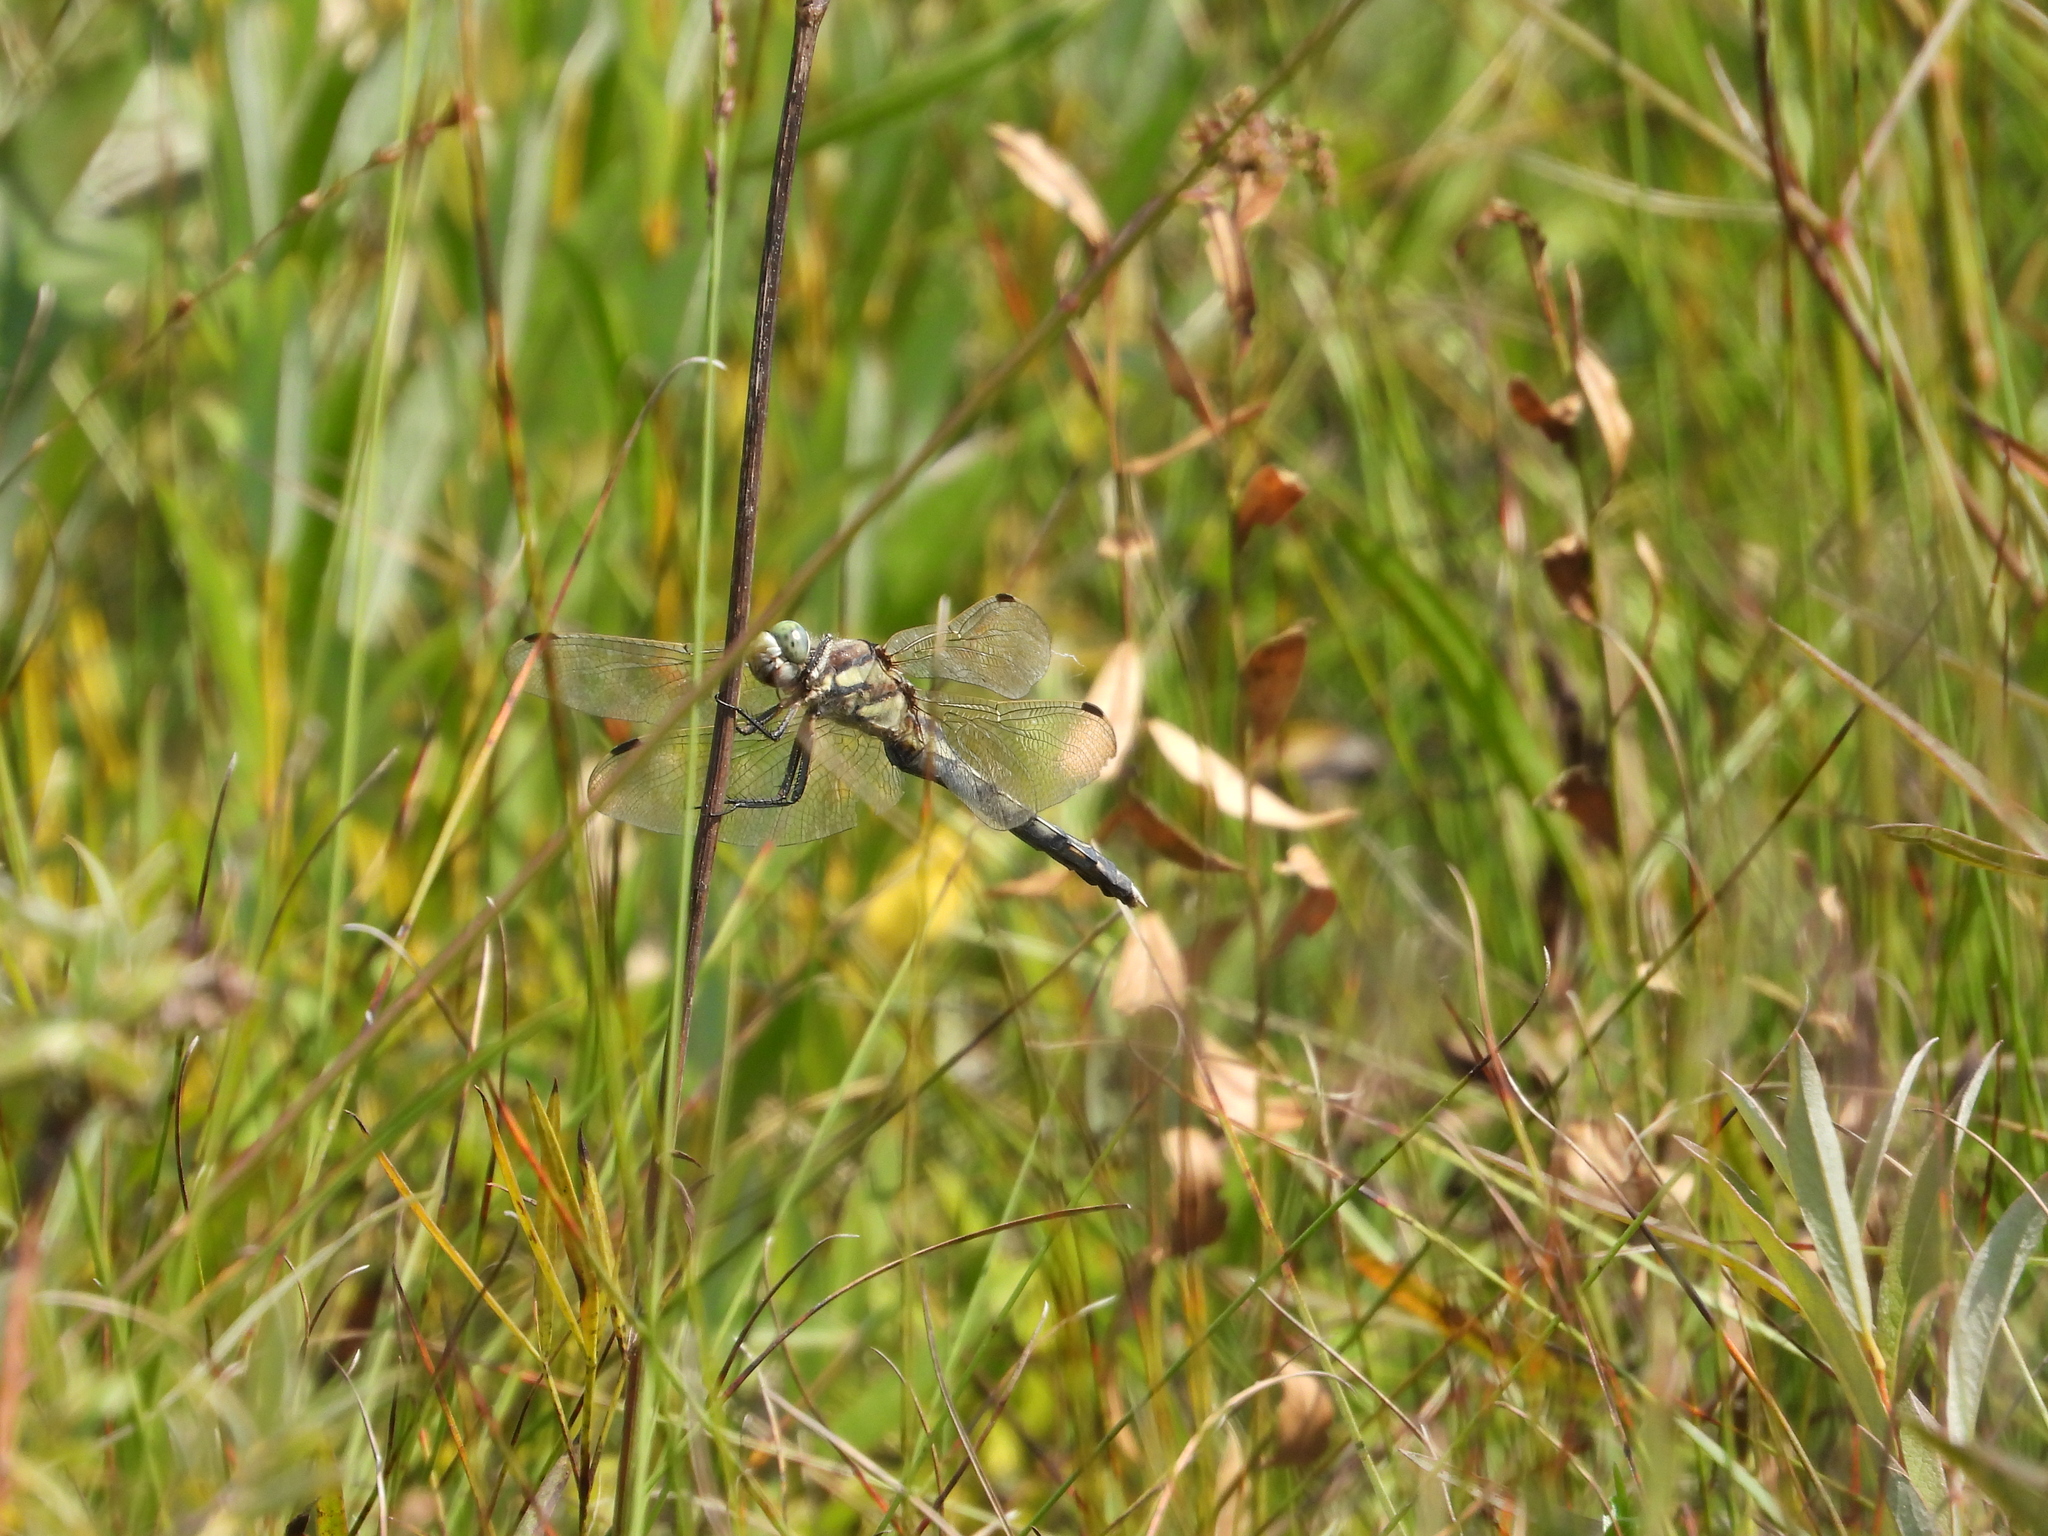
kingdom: Animalia
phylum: Arthropoda
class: Insecta
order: Odonata
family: Libellulidae
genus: Orthetrum
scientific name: Orthetrum albistylum
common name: White-tailed skimmer
